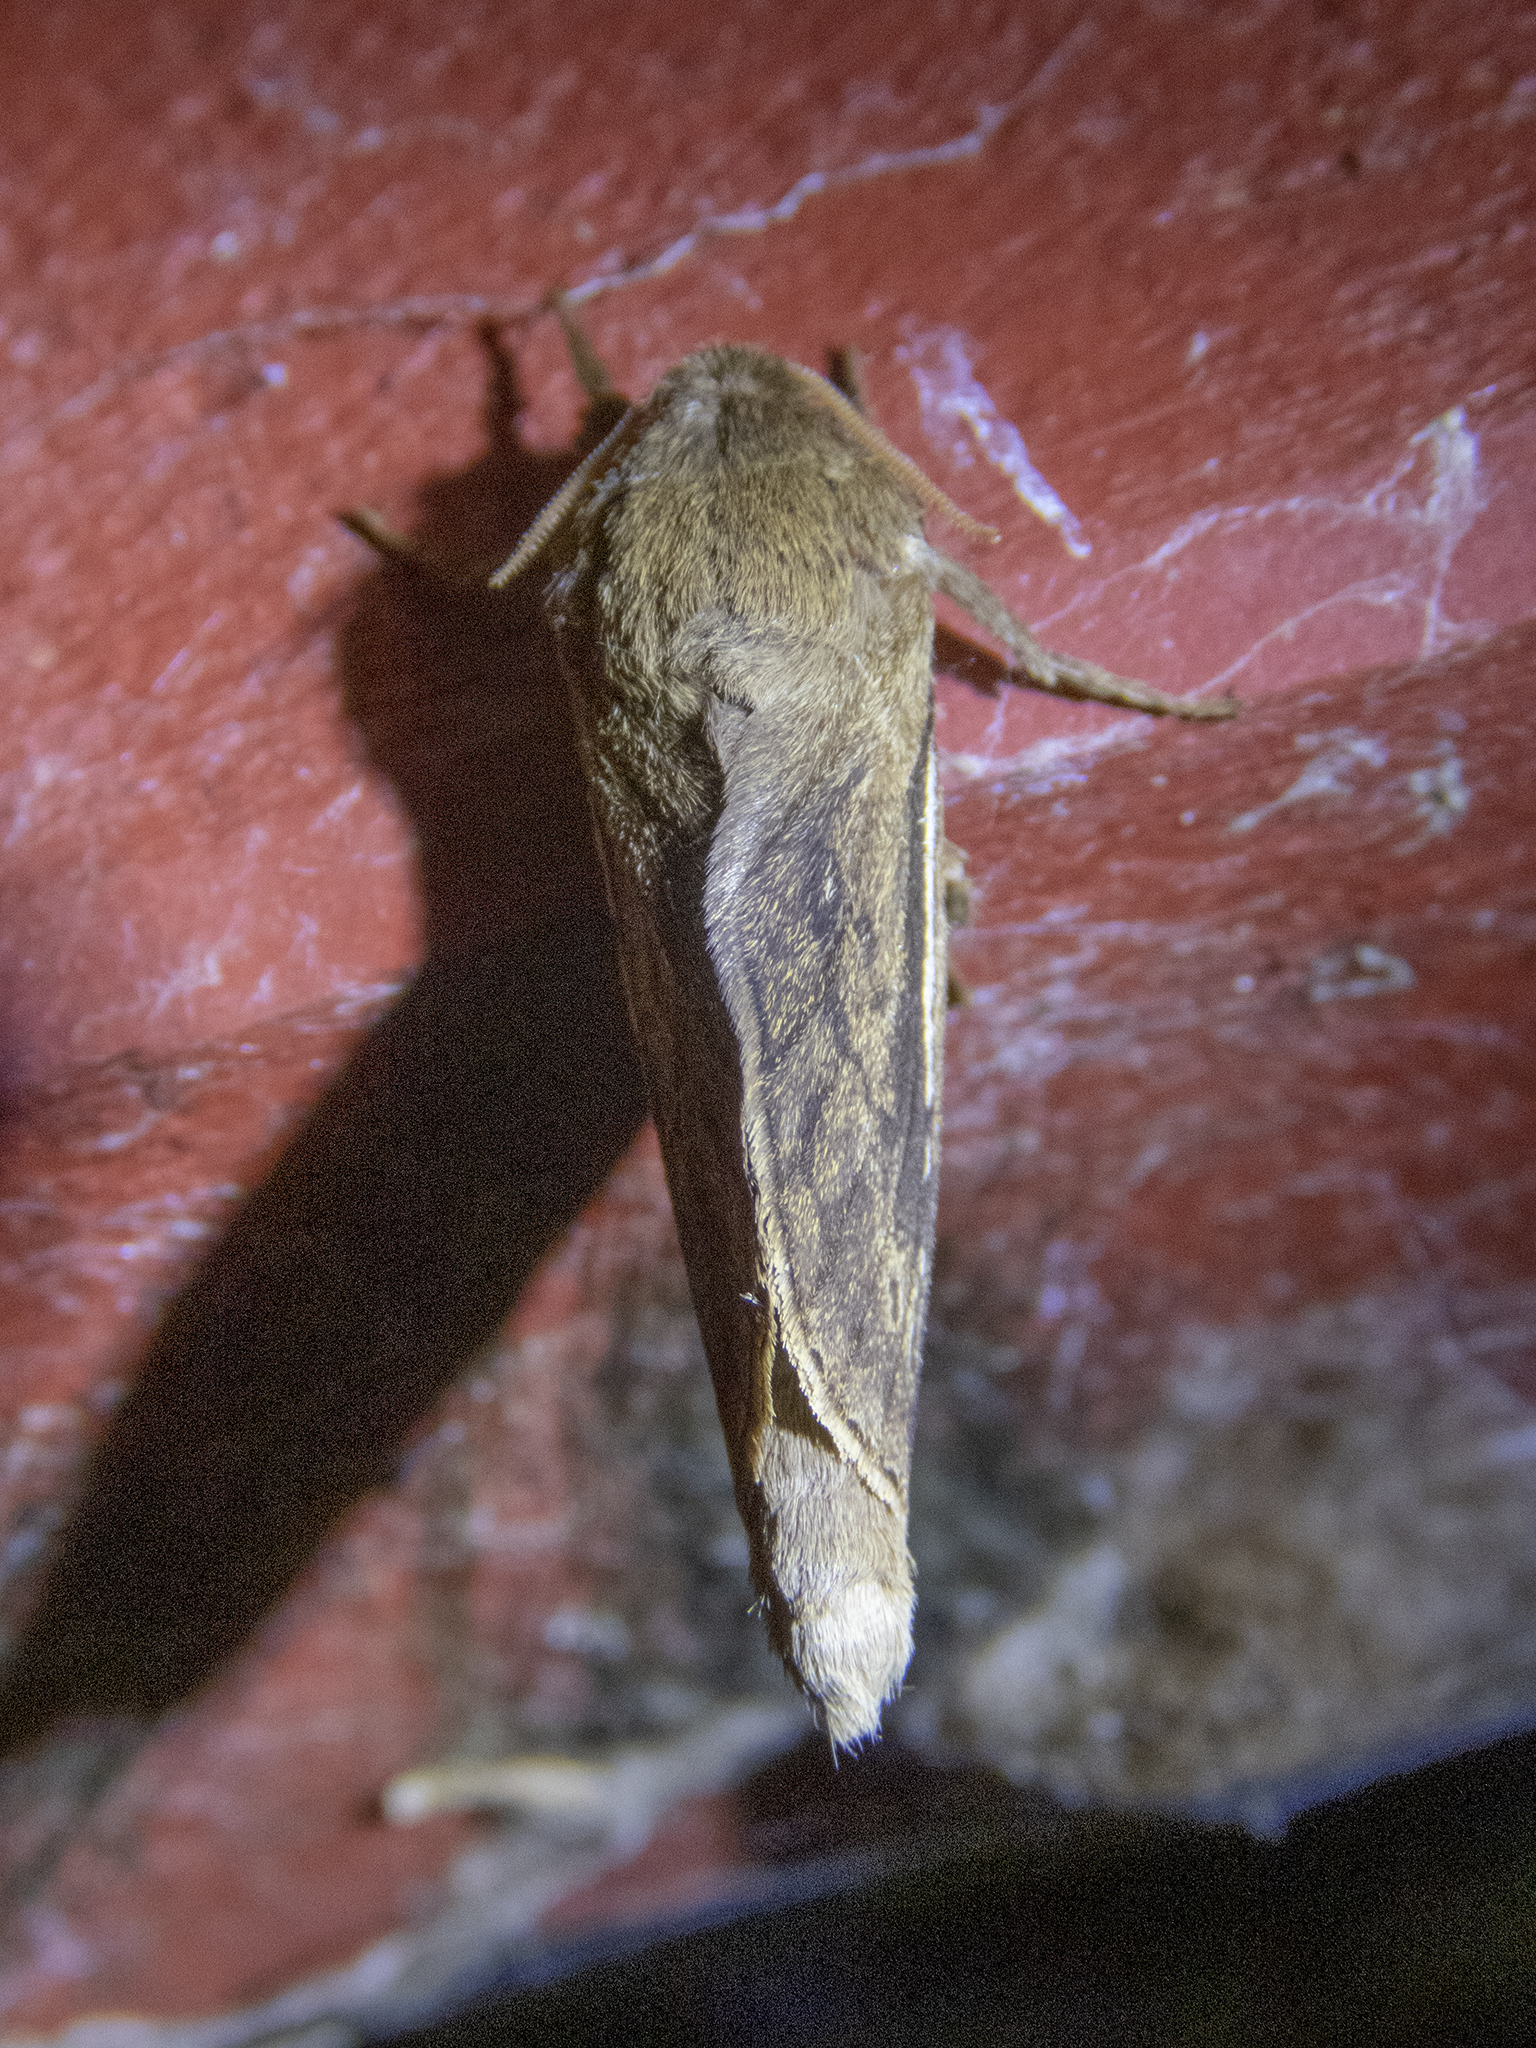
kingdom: Animalia
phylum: Arthropoda
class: Insecta
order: Lepidoptera
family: Hepialidae
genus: Wiseana
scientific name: Wiseana umbraculatus
